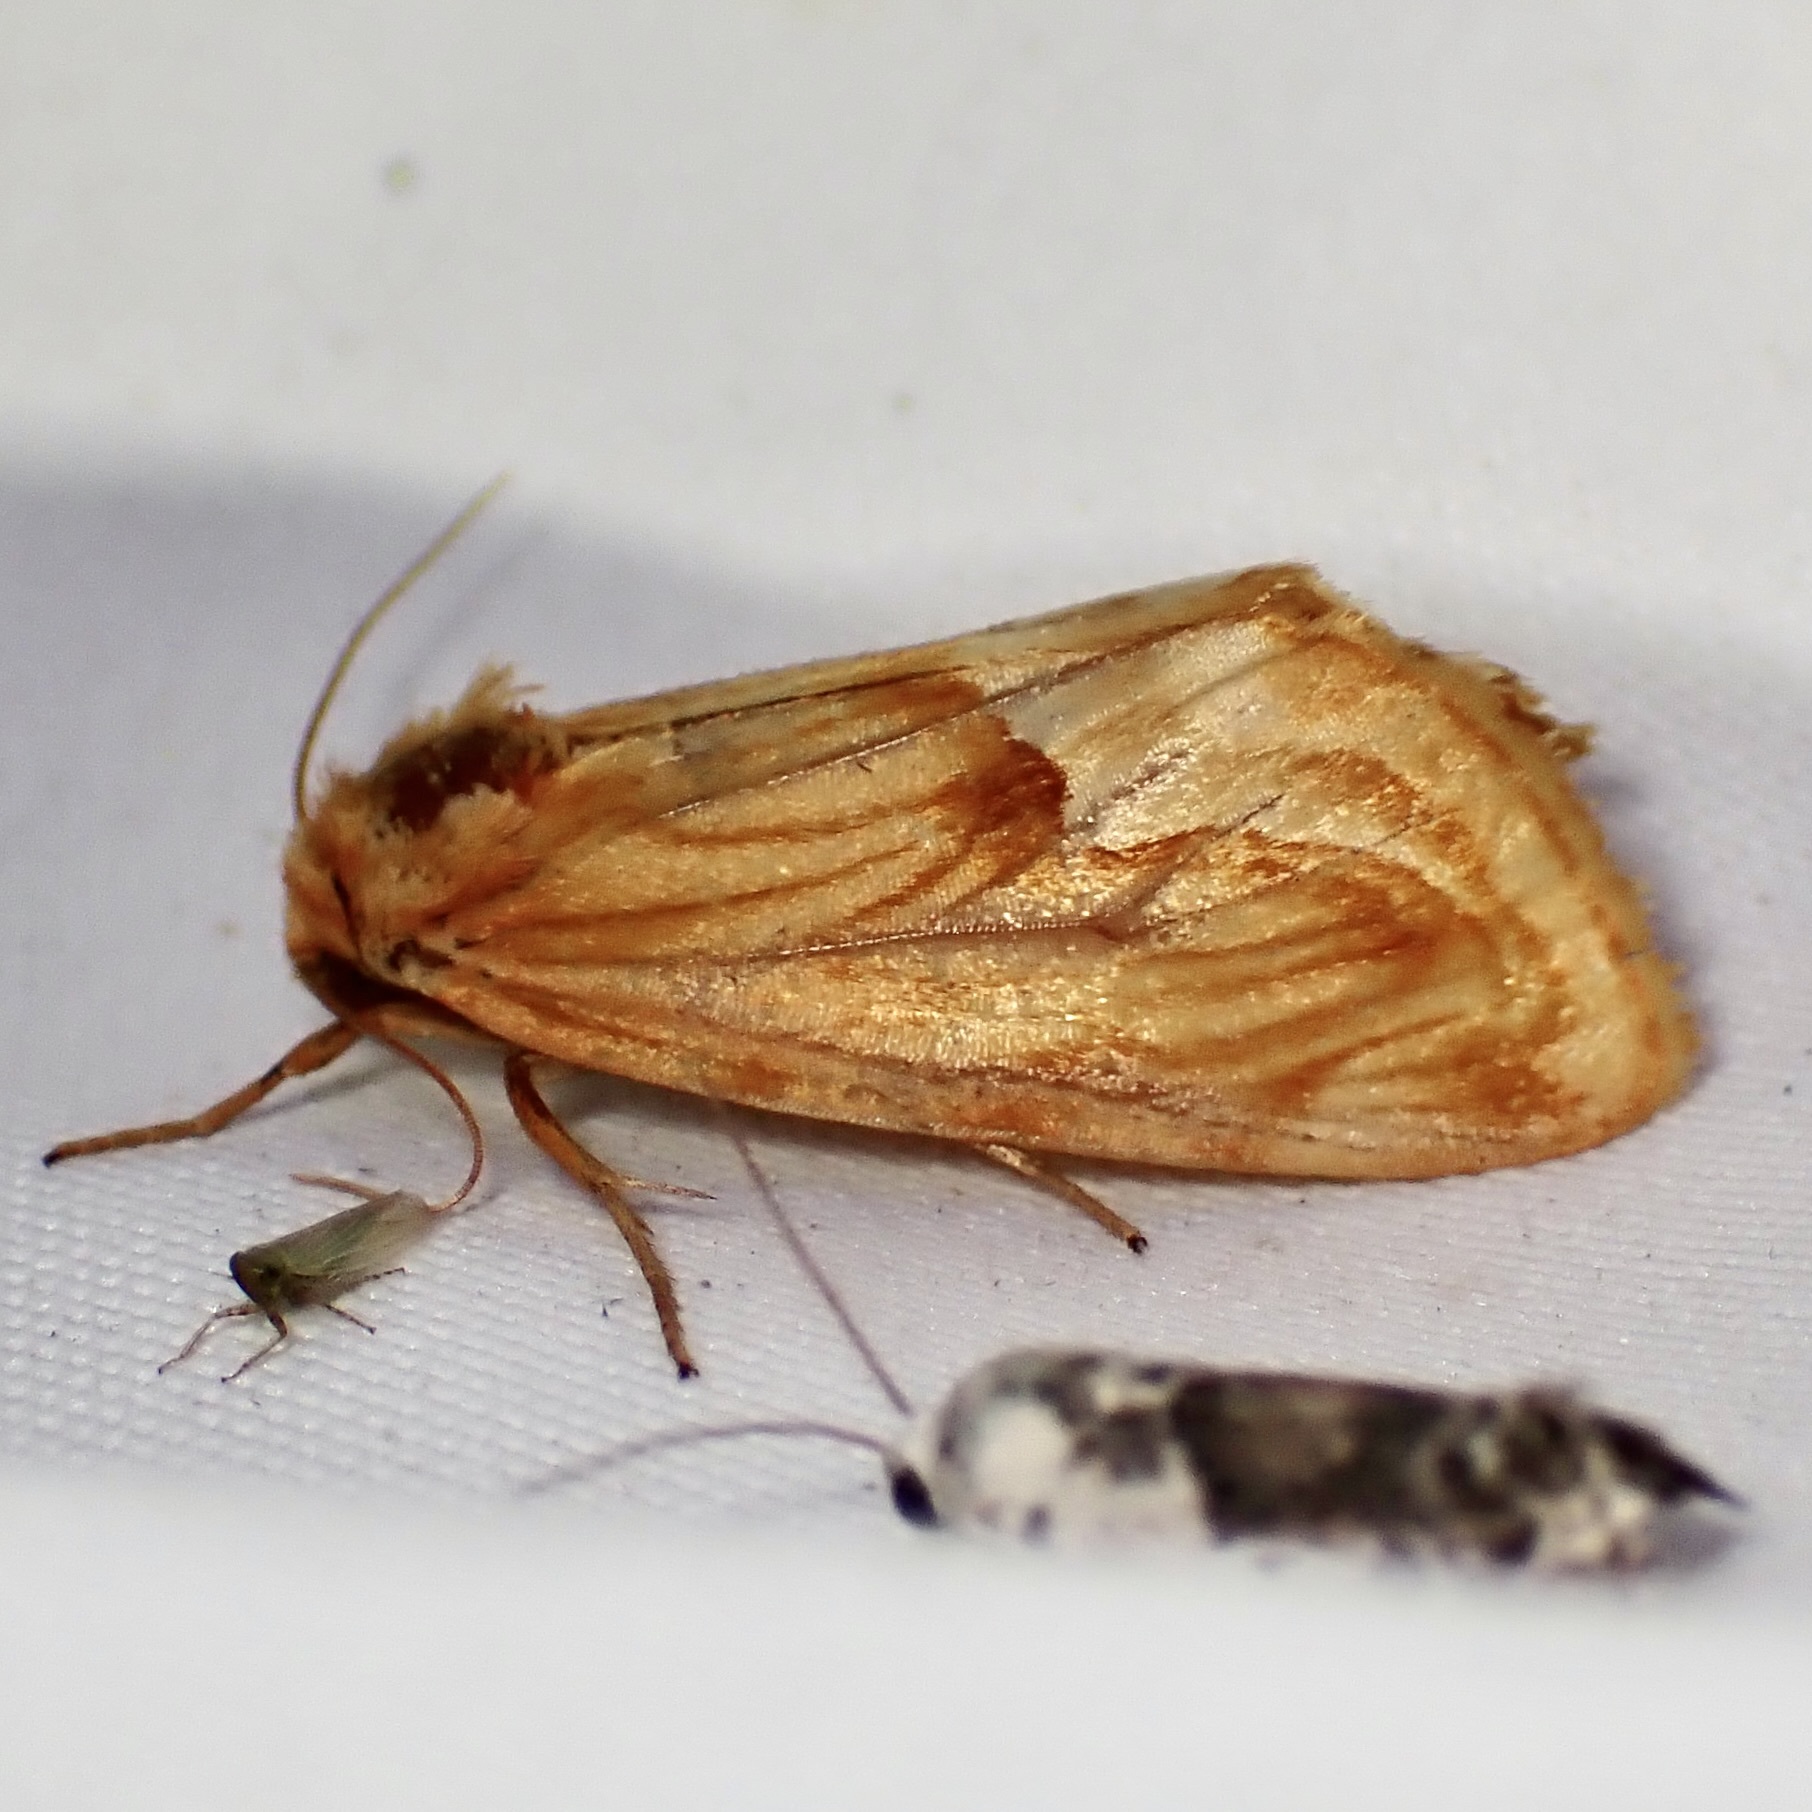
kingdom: Animalia
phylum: Arthropoda
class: Insecta
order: Lepidoptera
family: Noctuidae
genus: Cirrhophanus
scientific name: Cirrhophanus dyari
